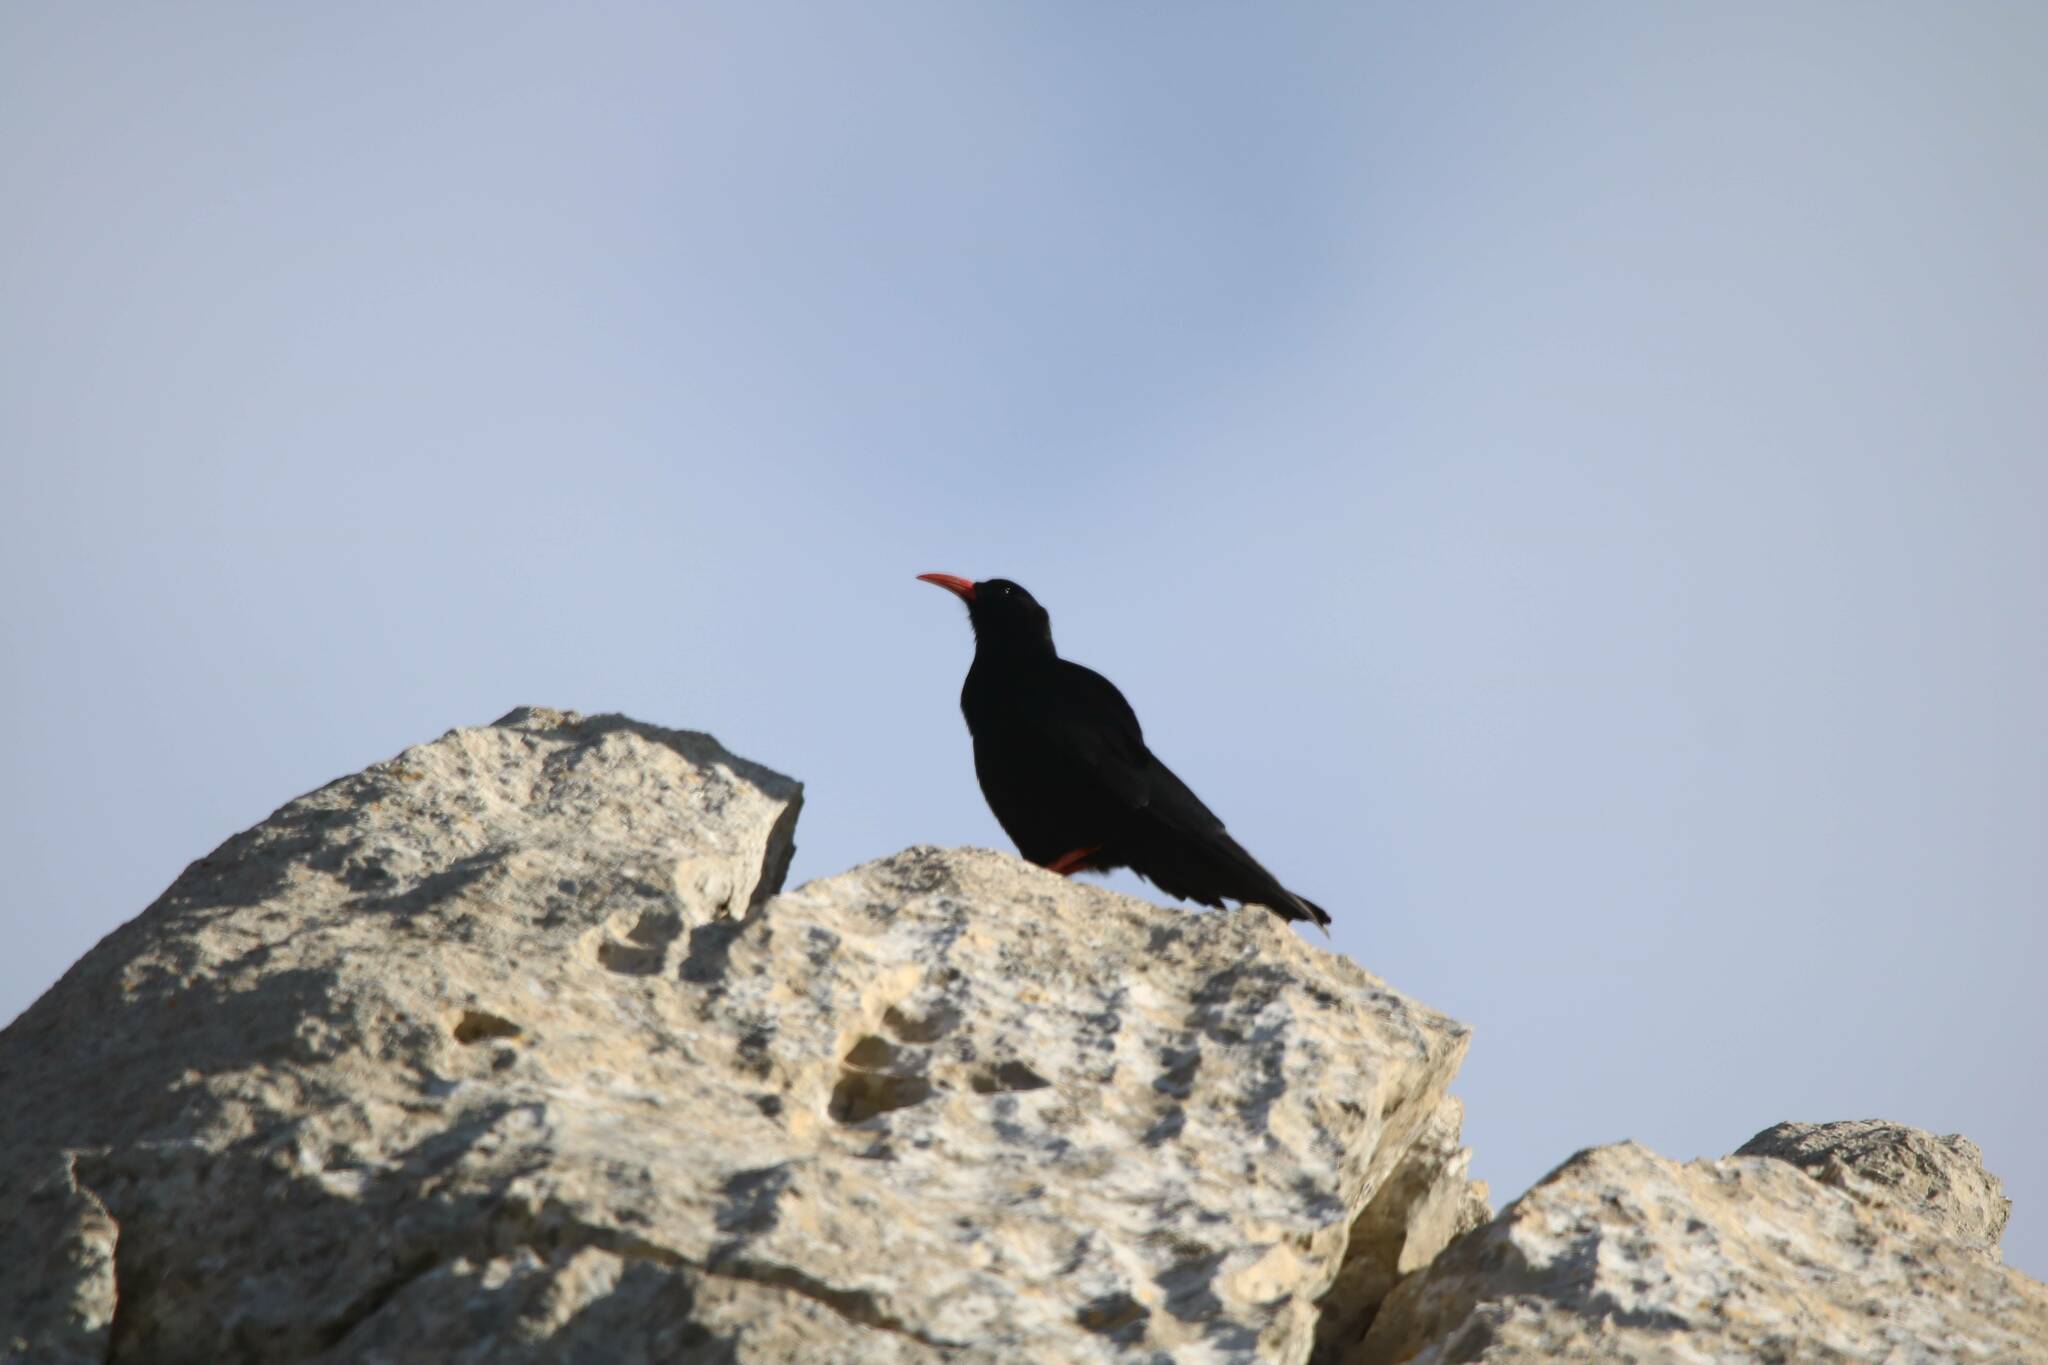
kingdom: Animalia
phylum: Chordata
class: Aves
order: Passeriformes
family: Corvidae
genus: Pyrrhocorax
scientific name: Pyrrhocorax pyrrhocorax
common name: Red-billed chough
